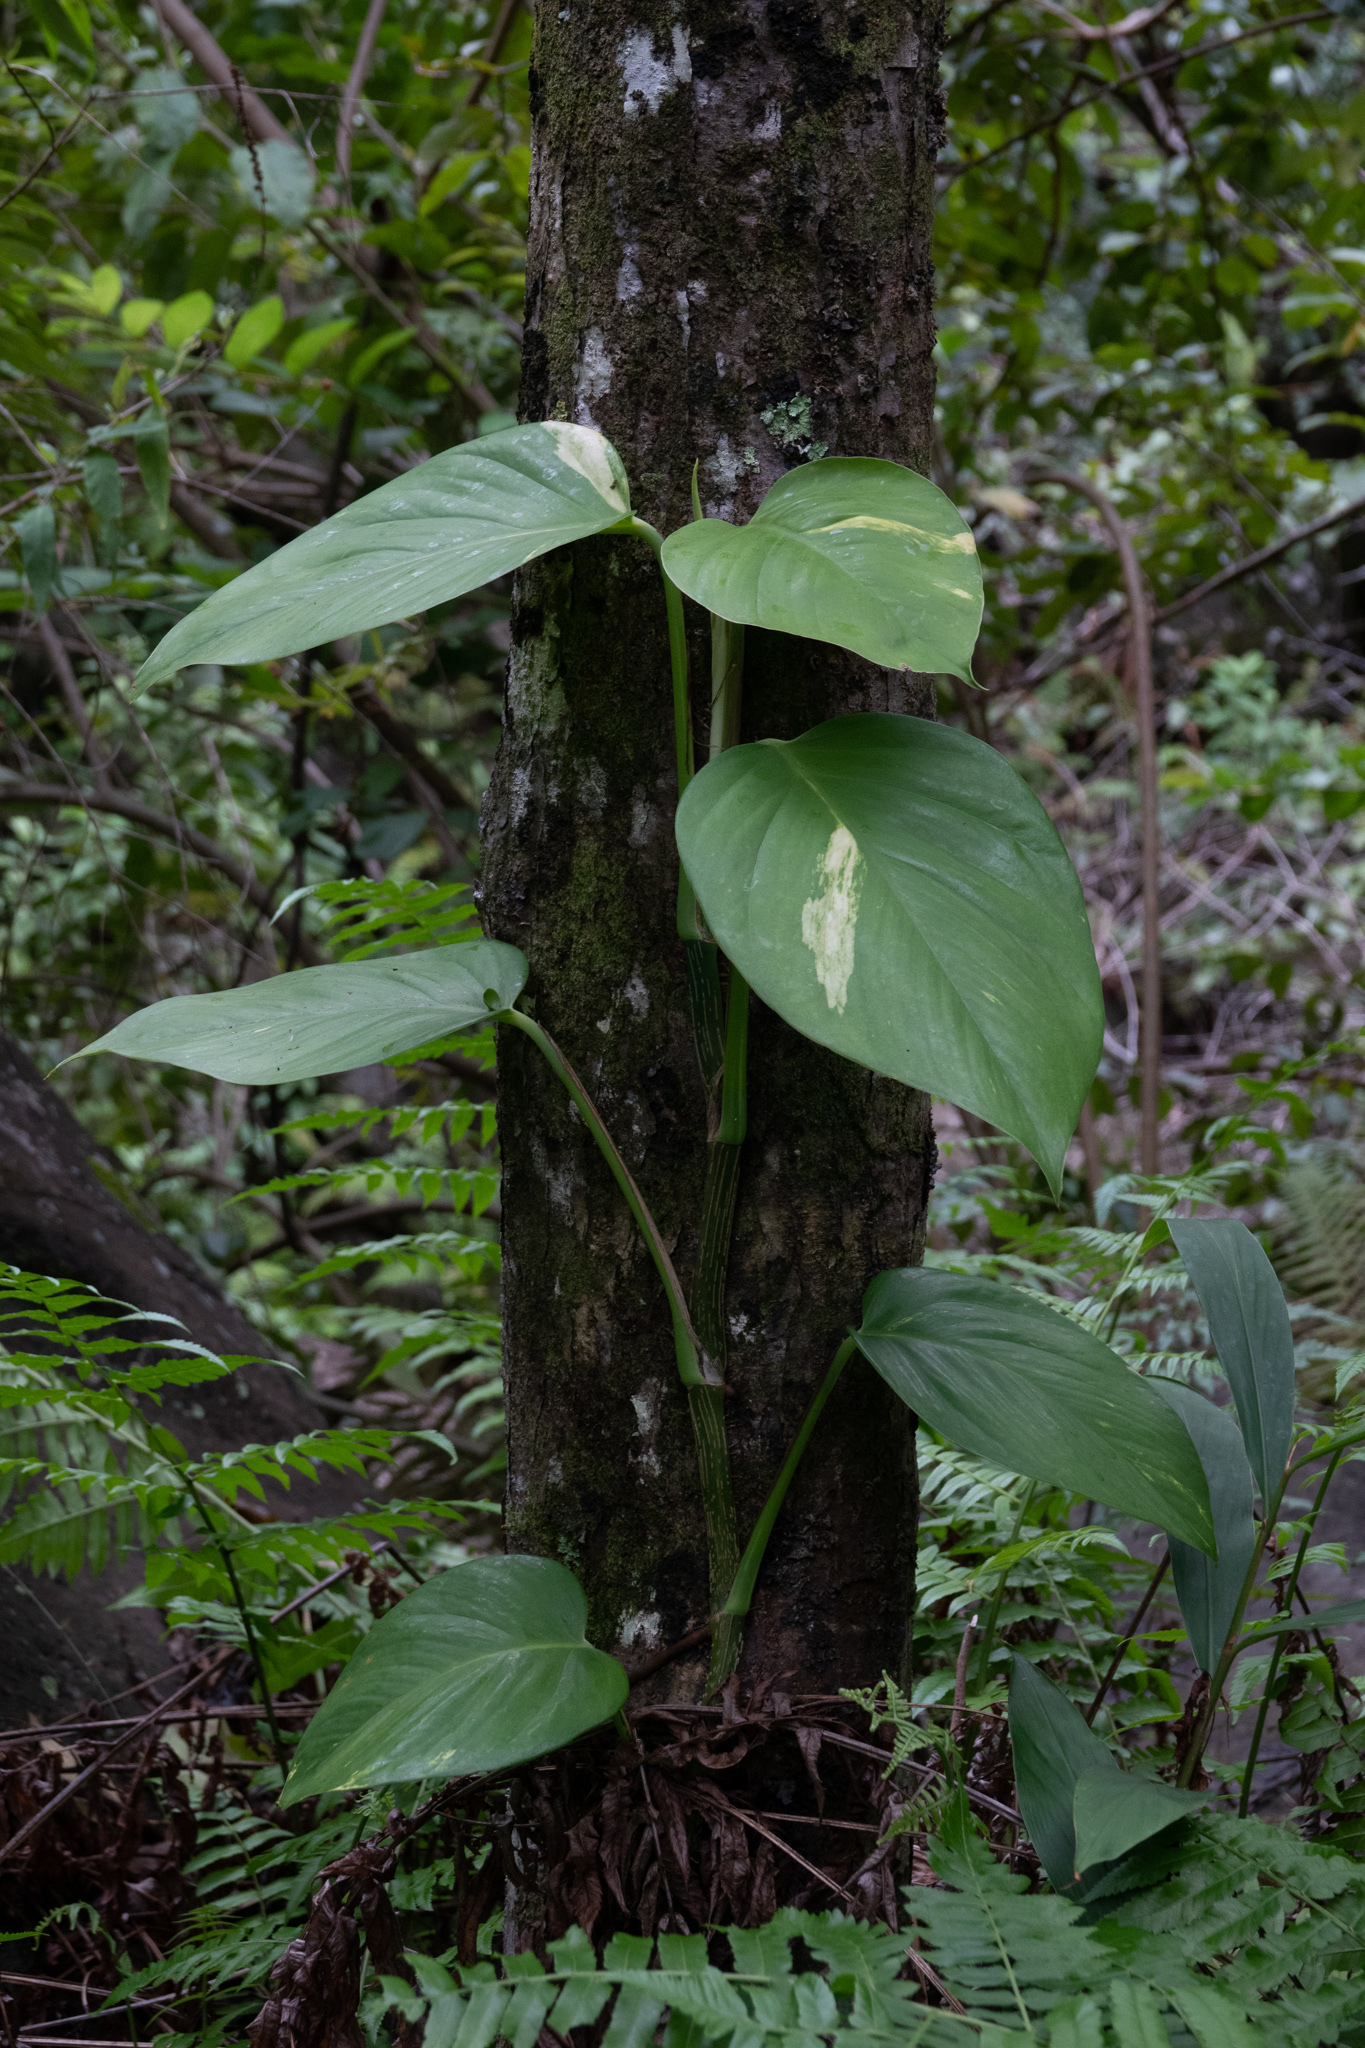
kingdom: Plantae
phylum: Tracheophyta
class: Liliopsida
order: Alismatales
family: Araceae
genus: Epipremnum
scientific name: Epipremnum aureum
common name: Golden hunter's-robe
